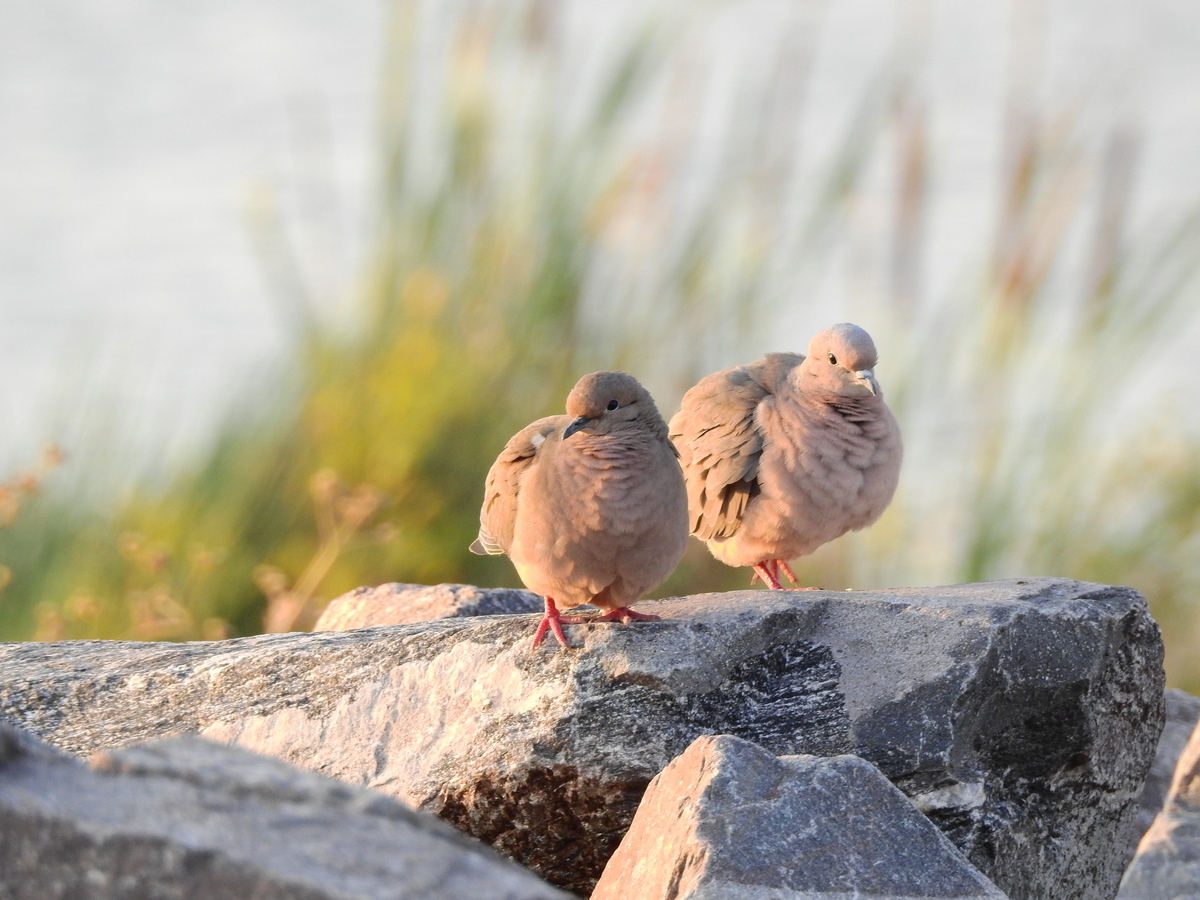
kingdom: Animalia
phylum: Chordata
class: Aves
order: Columbiformes
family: Columbidae
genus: Zenaida
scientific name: Zenaida auriculata
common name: Eared dove
